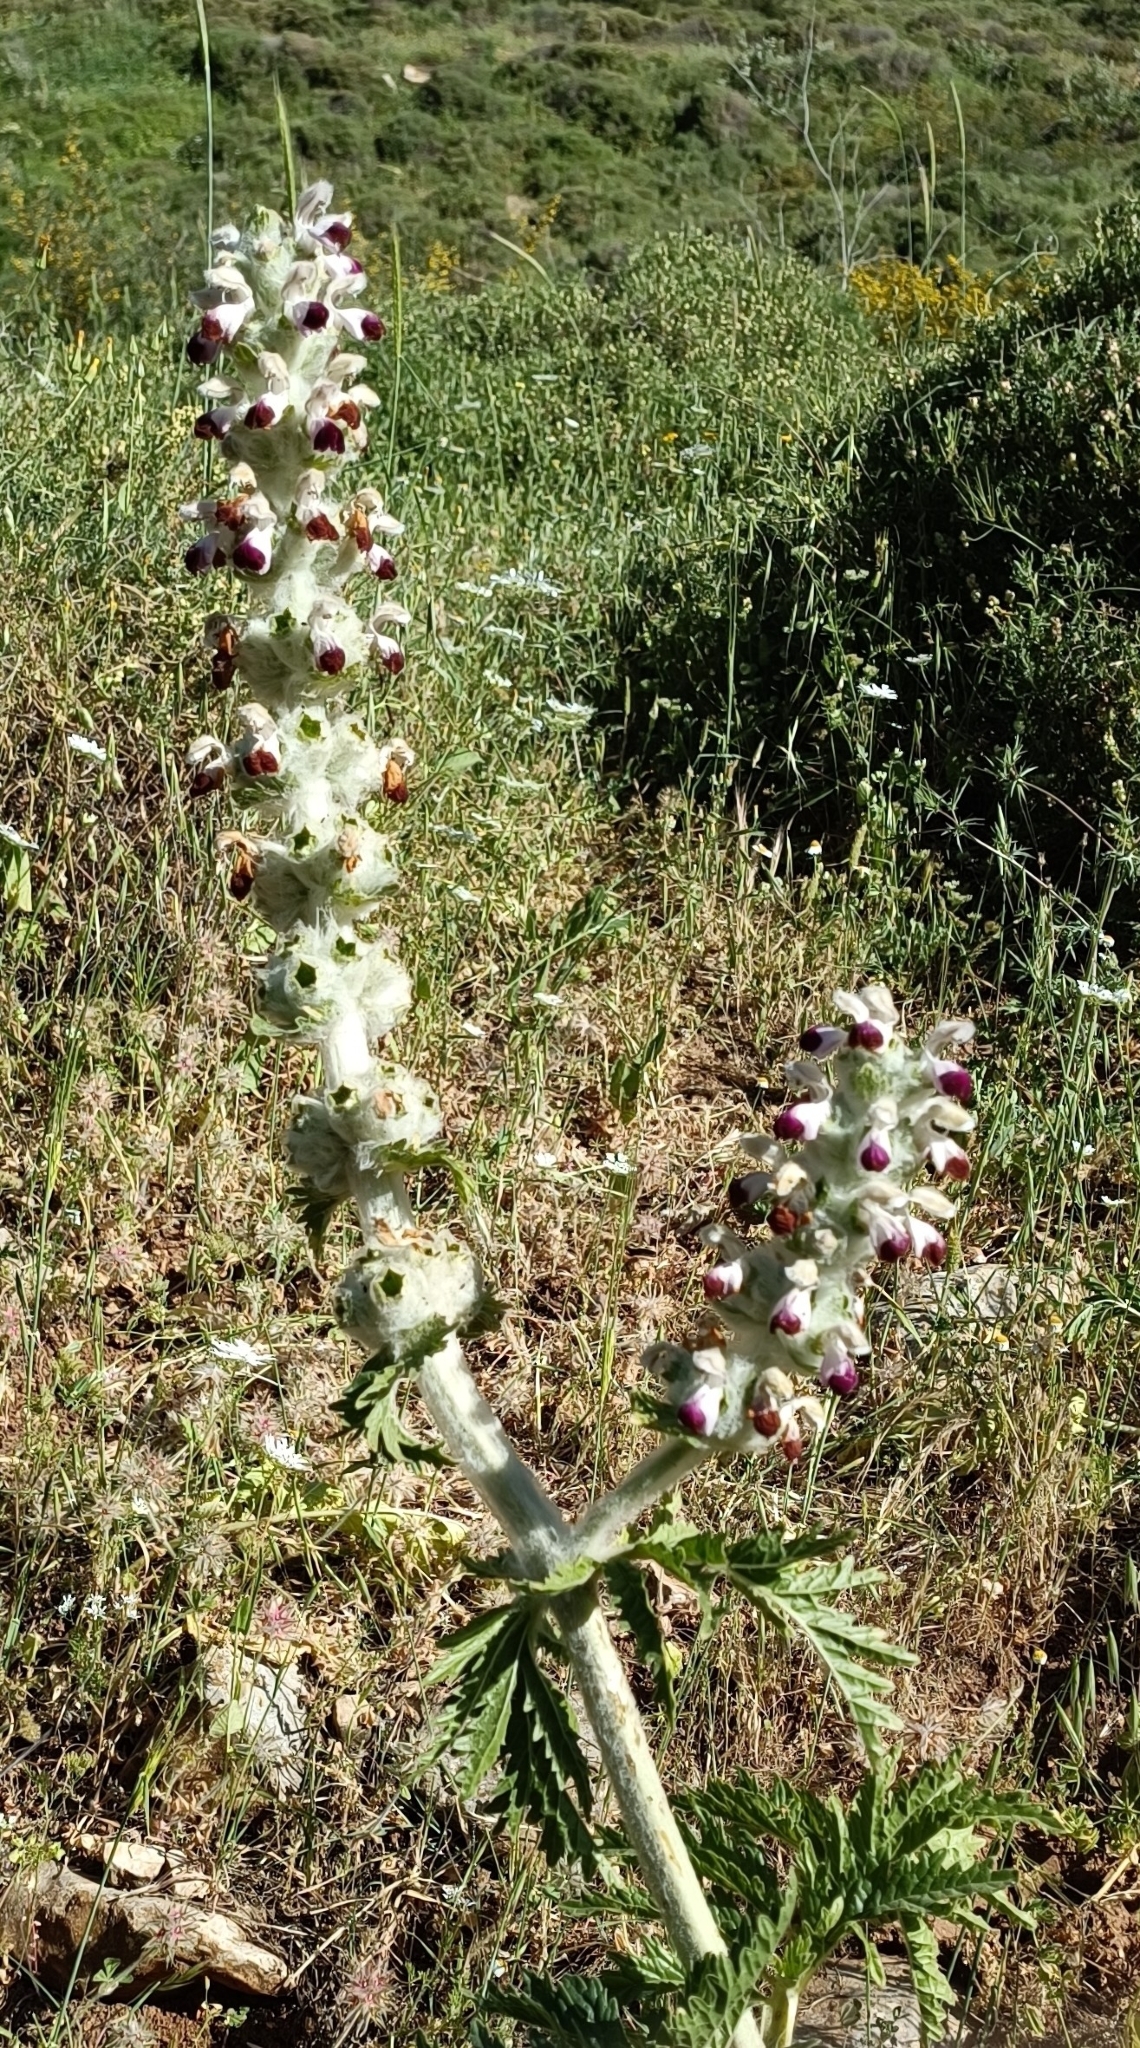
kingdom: Plantae
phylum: Tracheophyta
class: Magnoliopsida
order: Lamiales
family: Lamiaceae
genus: Phlomoides
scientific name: Phlomoides laciniata
